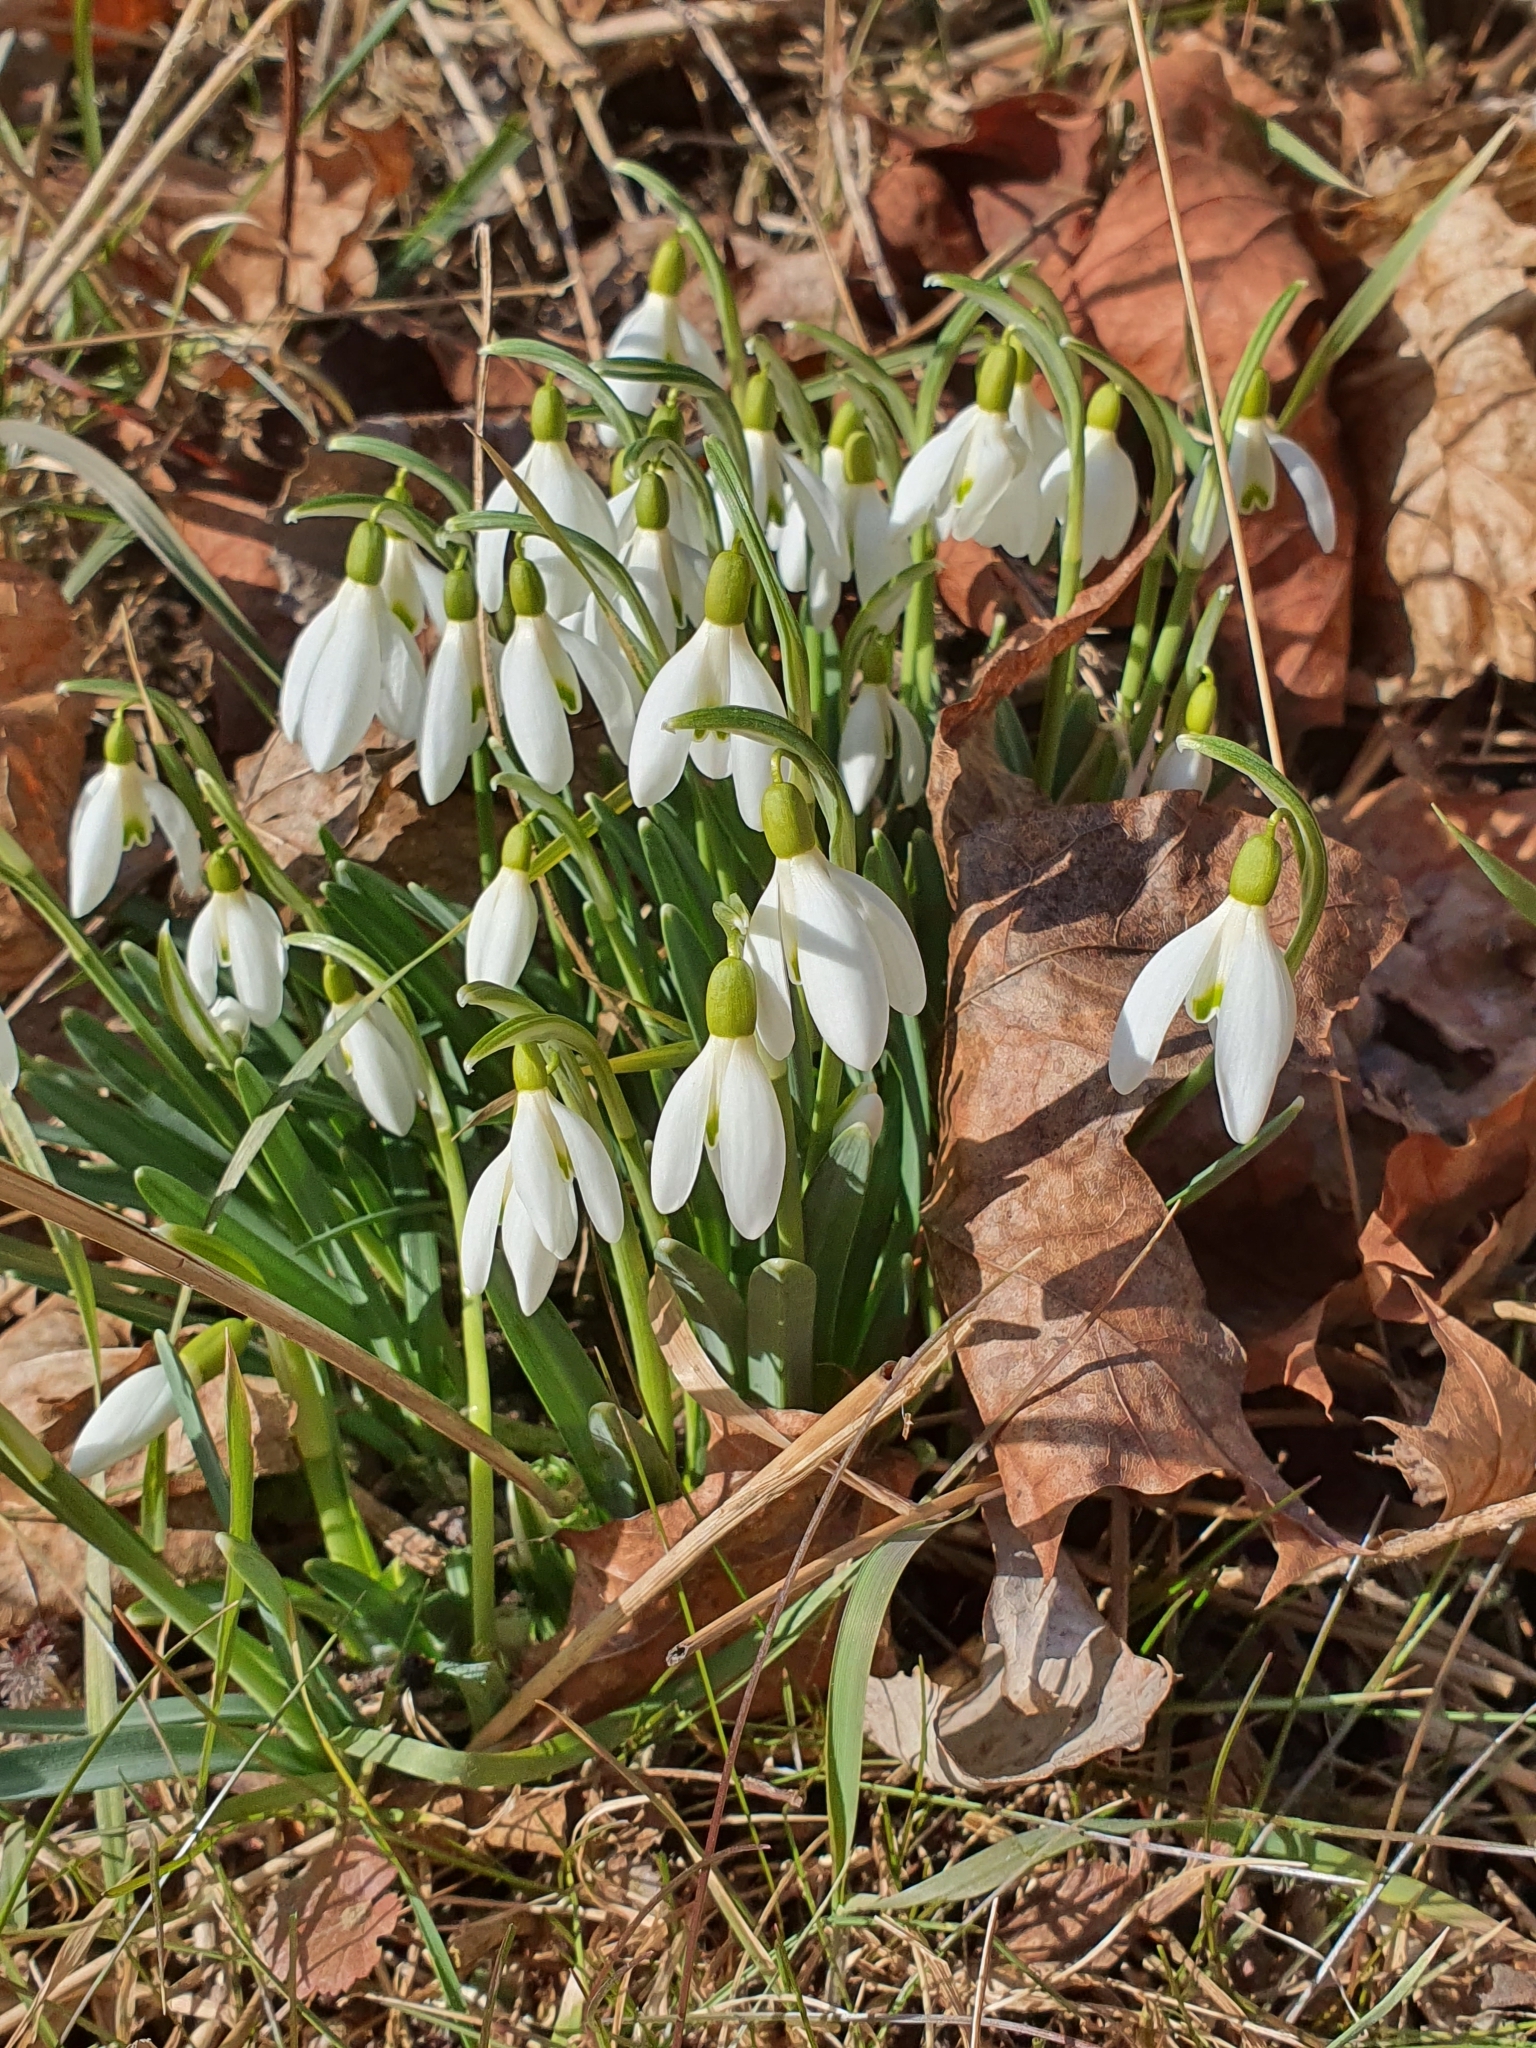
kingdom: Plantae
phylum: Tracheophyta
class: Liliopsida
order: Asparagales
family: Amaryllidaceae
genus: Galanthus
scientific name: Galanthus nivalis
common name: Snowdrop
